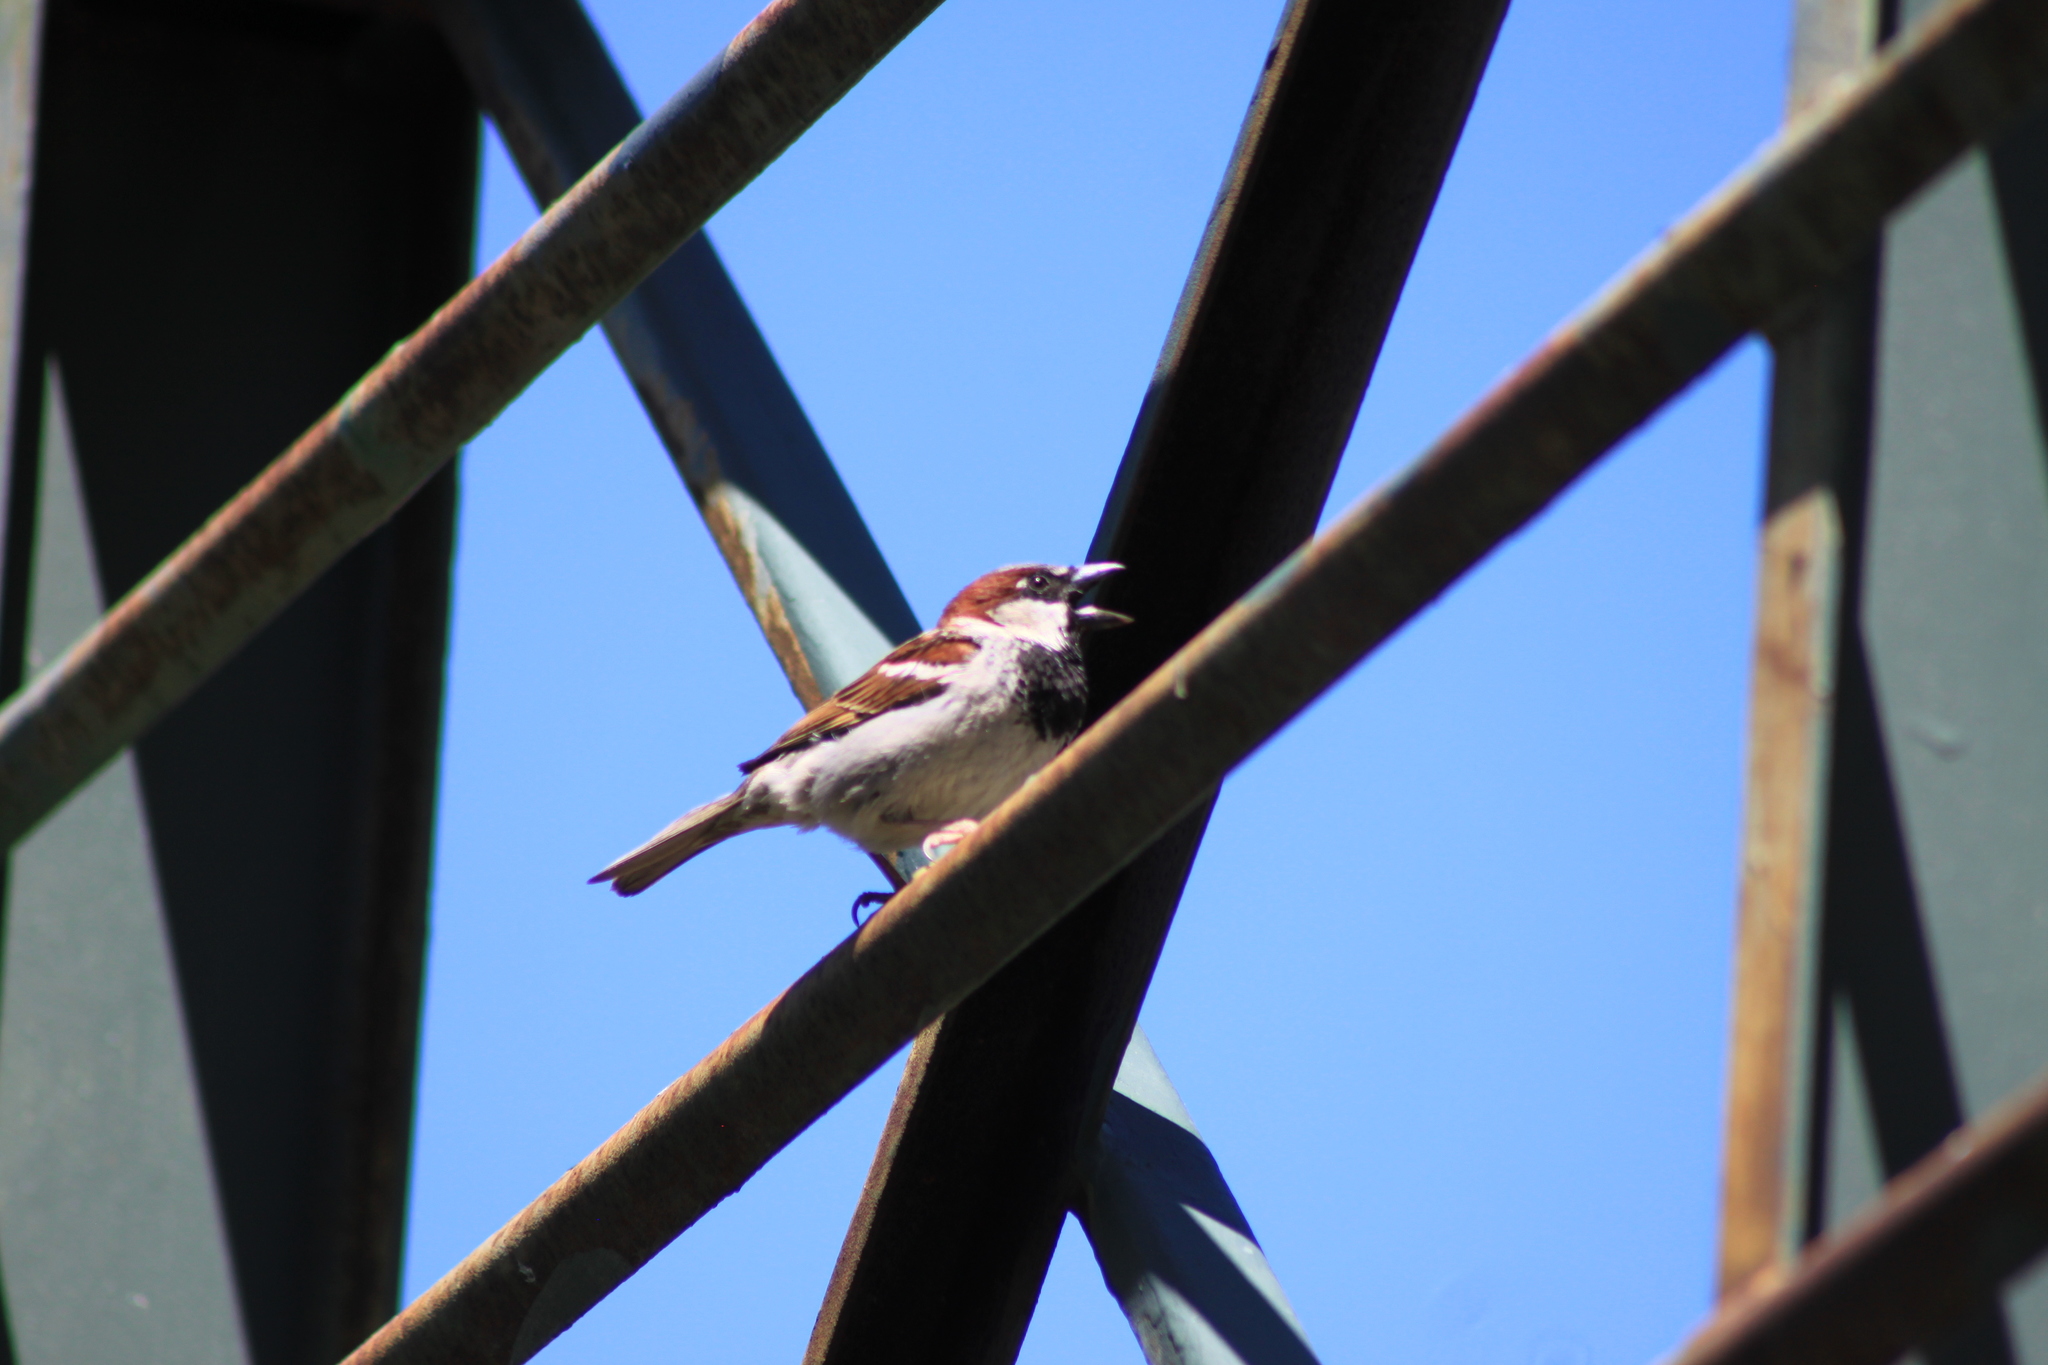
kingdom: Animalia
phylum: Chordata
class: Aves
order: Passeriformes
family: Passeridae
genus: Passer
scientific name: Passer domesticus
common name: House sparrow
